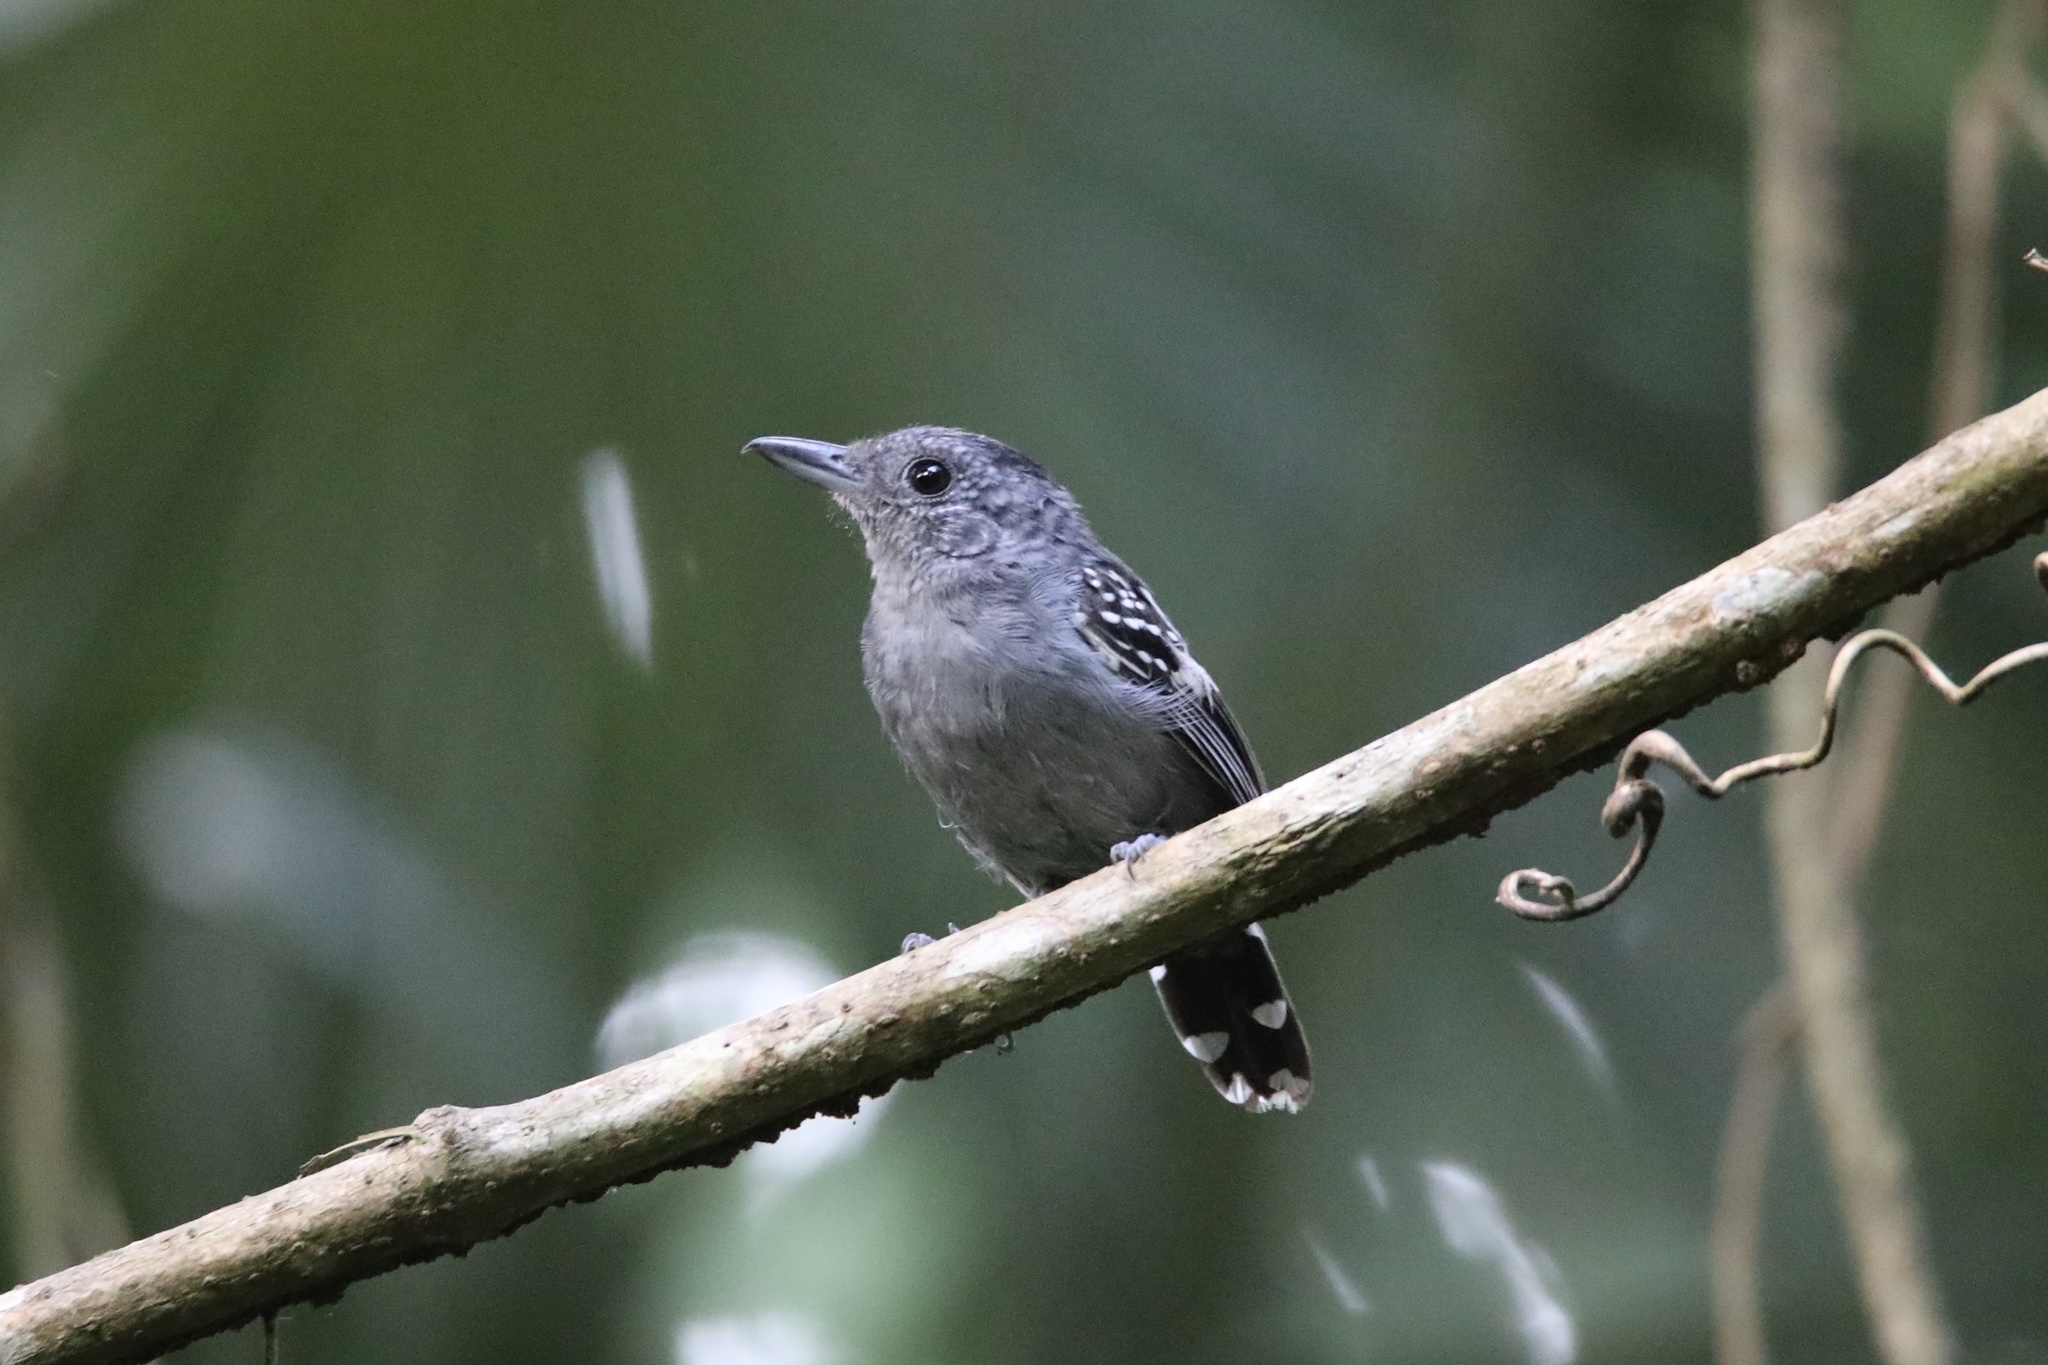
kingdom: Animalia
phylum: Chordata
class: Aves
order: Passeriformes
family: Thamnophilidae
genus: Thamnophilus
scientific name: Thamnophilus atrinucha
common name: Black-crowned antshrike
